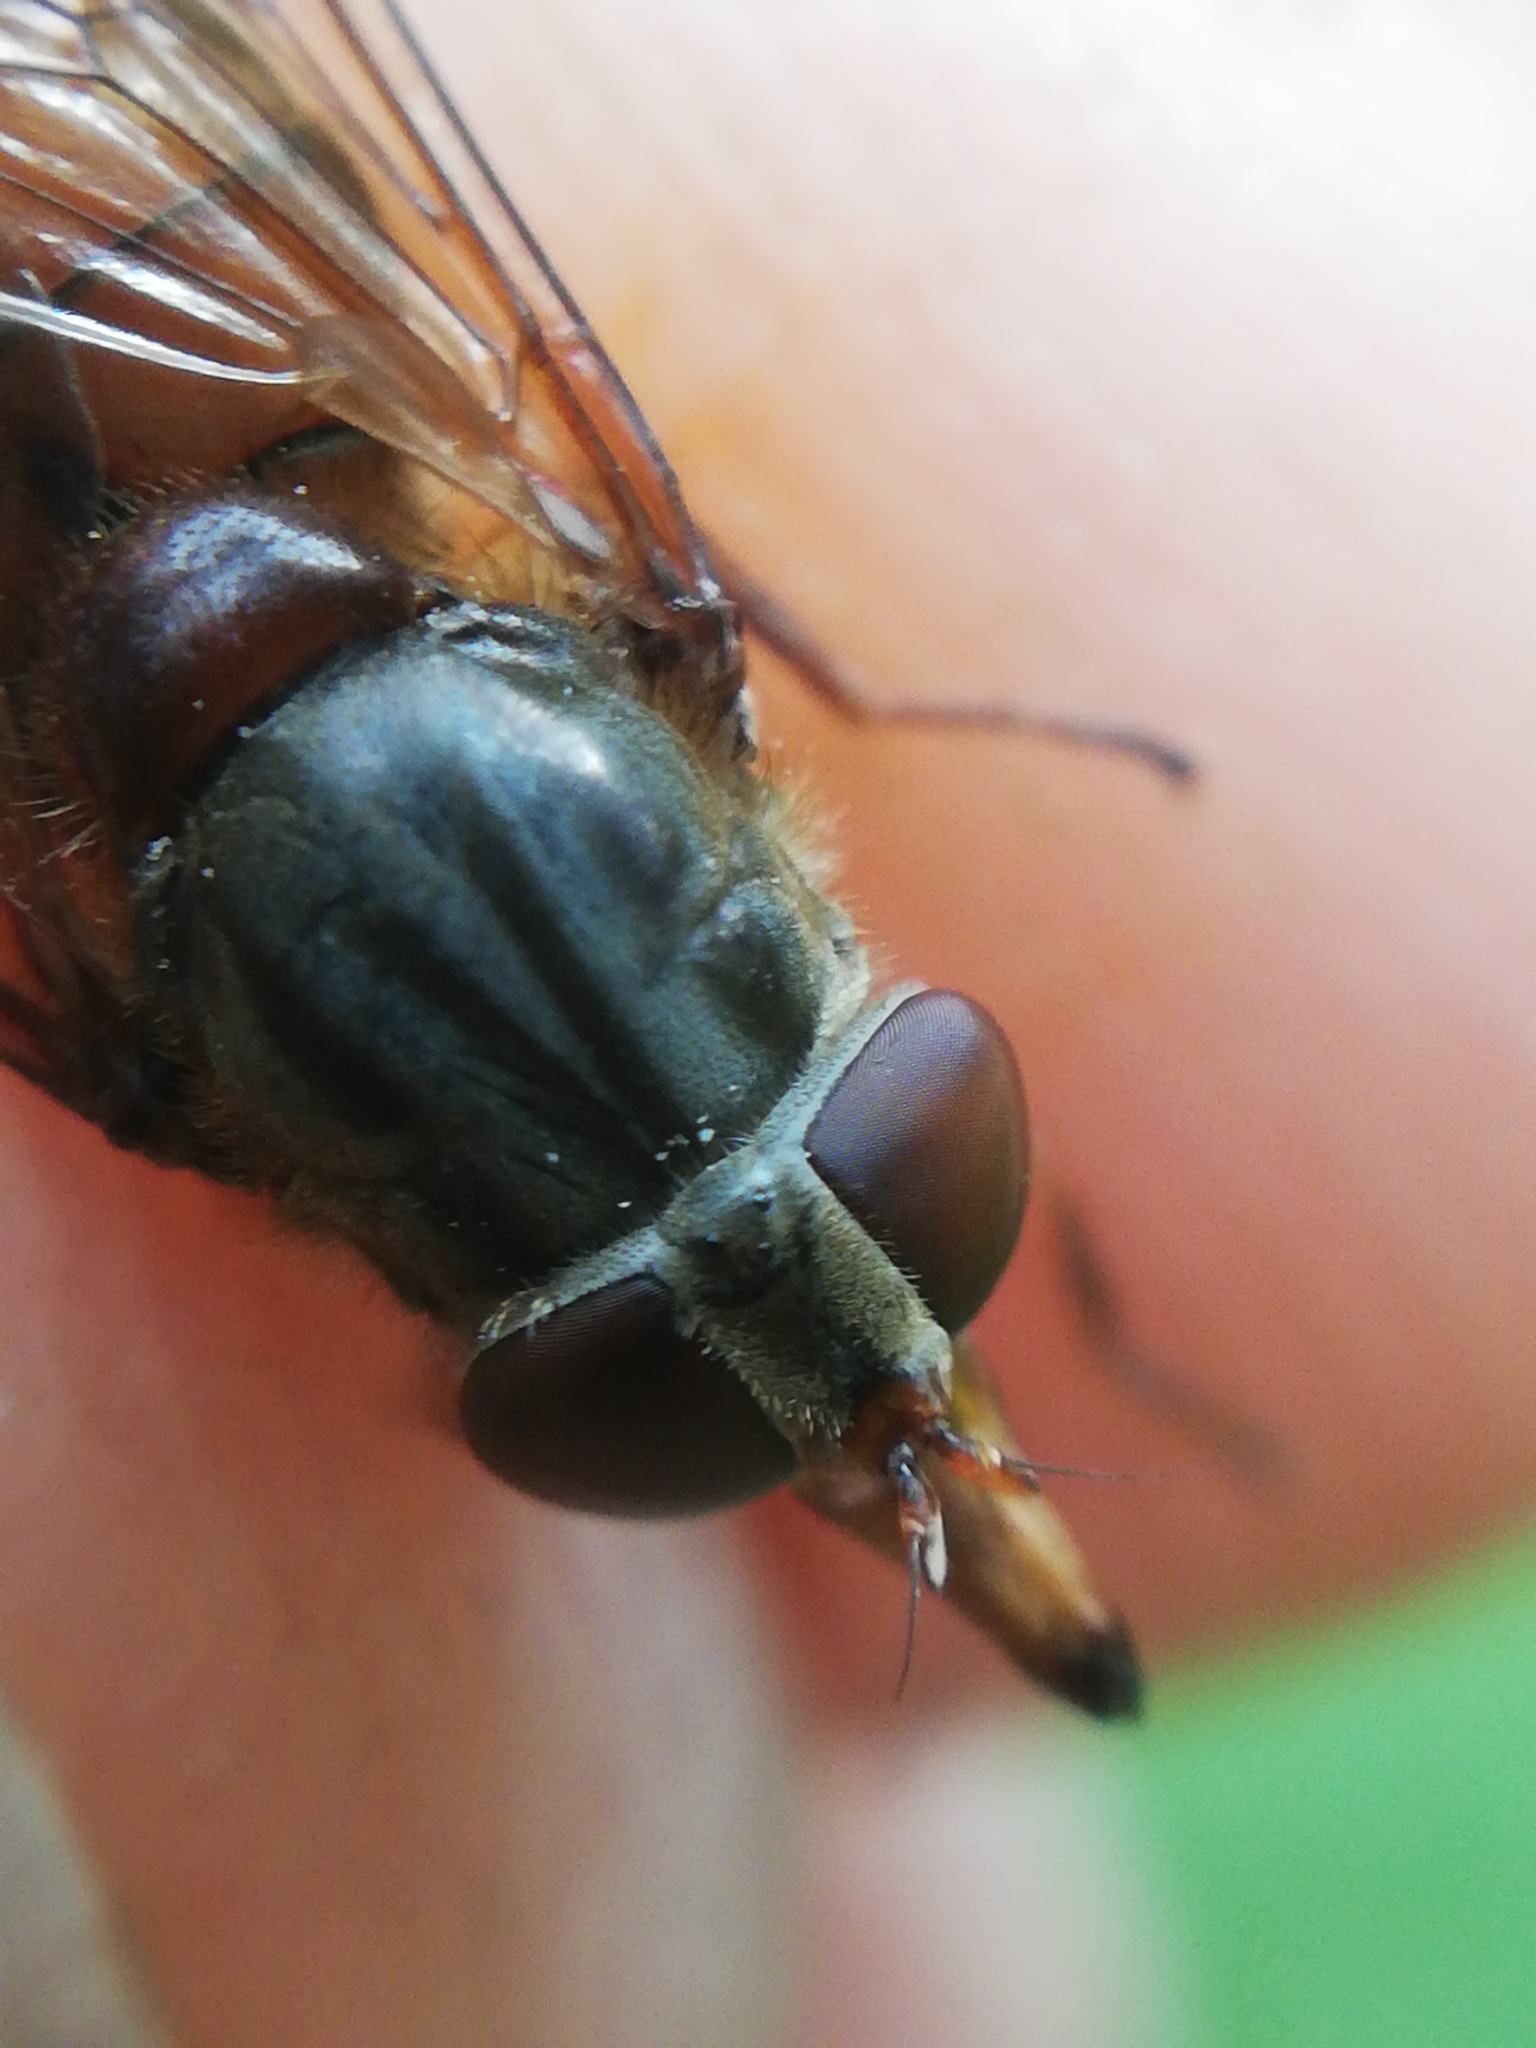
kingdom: Animalia
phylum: Arthropoda
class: Insecta
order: Diptera
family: Syrphidae
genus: Rhingia
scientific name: Rhingia campestris
